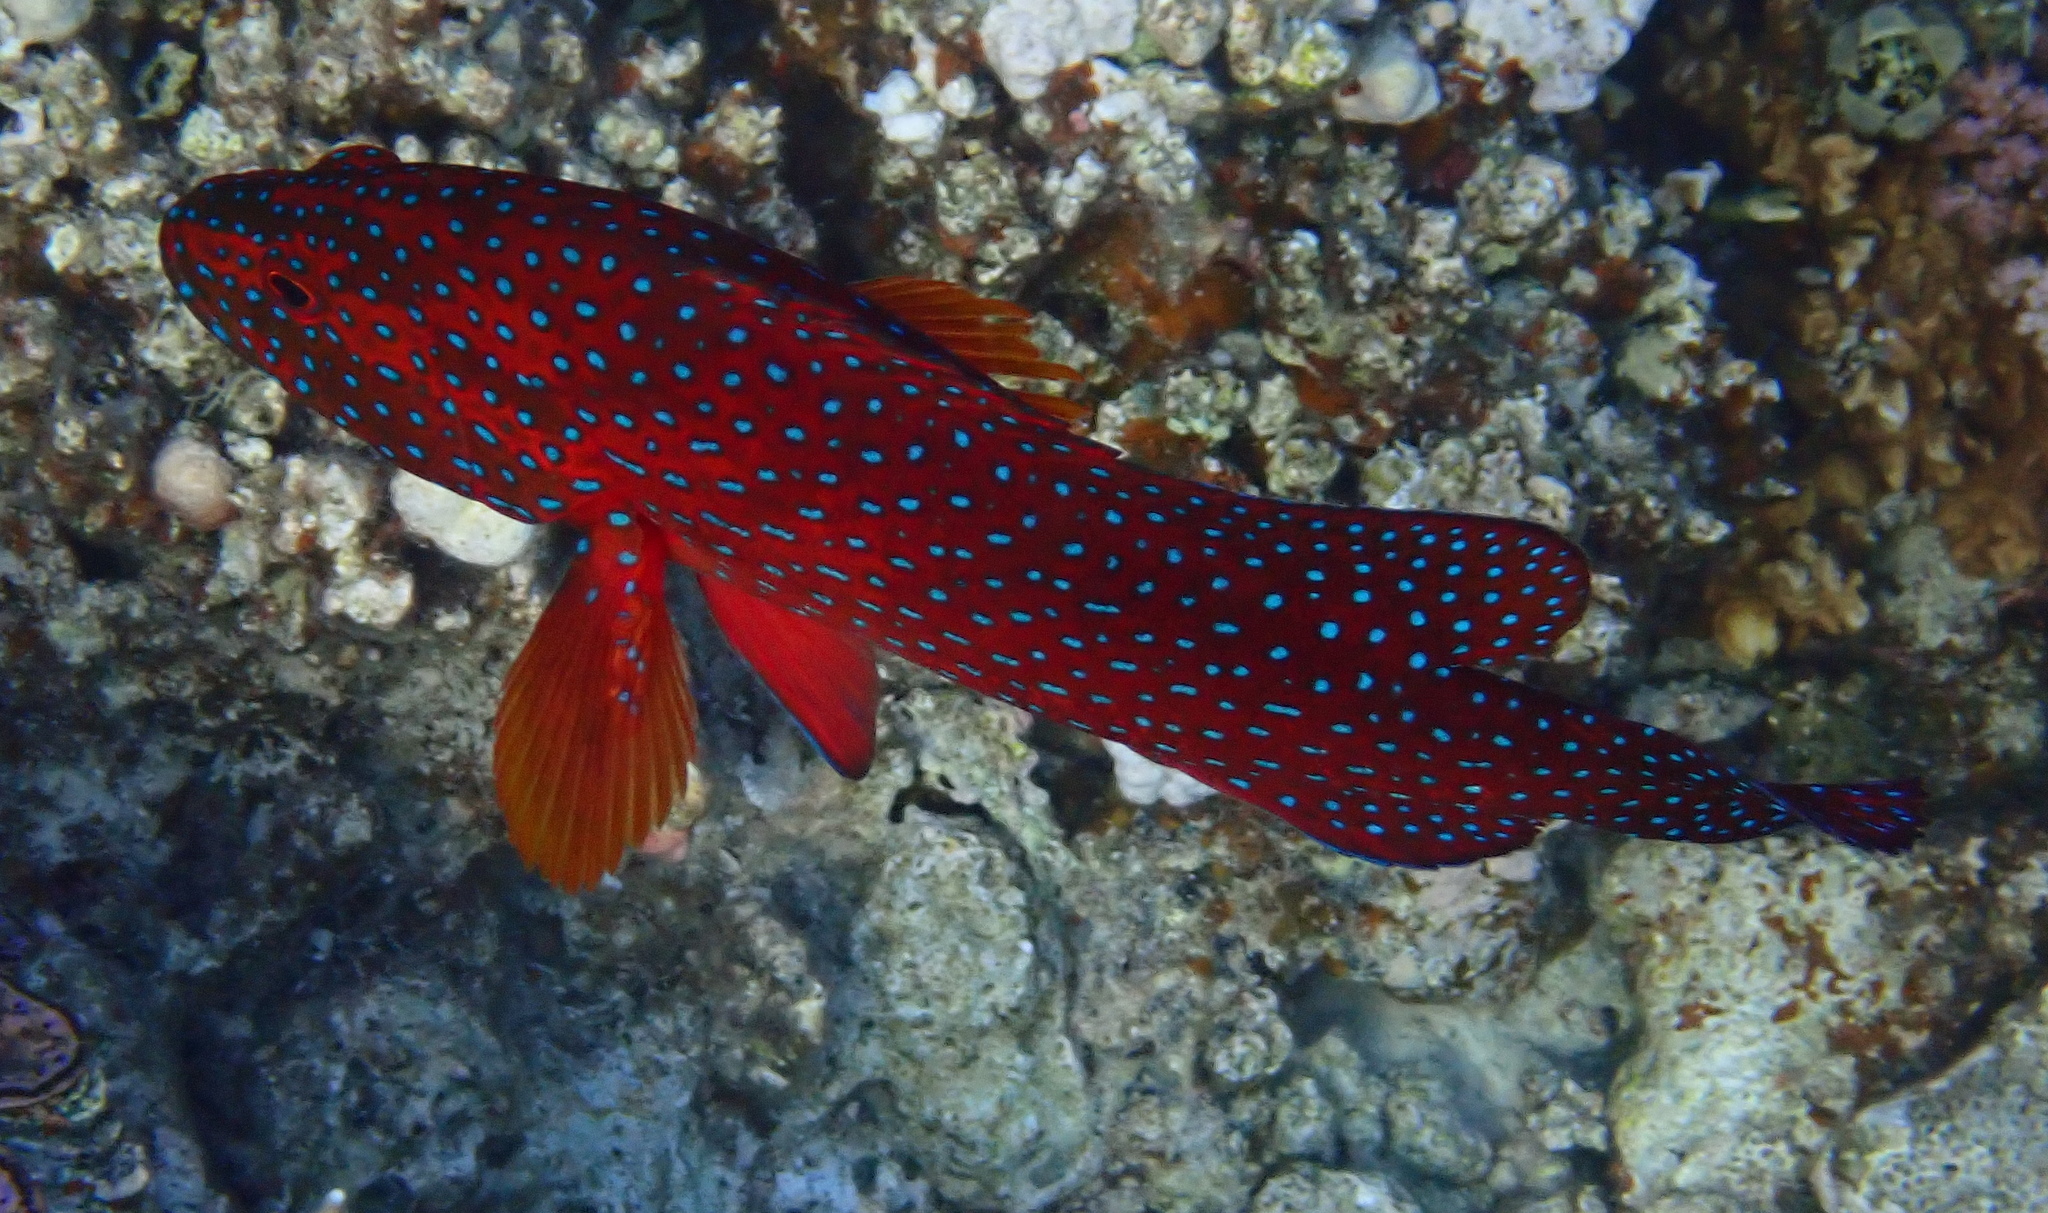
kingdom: Animalia
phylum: Chordata
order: Perciformes
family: Serranidae
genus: Cephalopholis
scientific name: Cephalopholis miniata
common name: Coral hind
